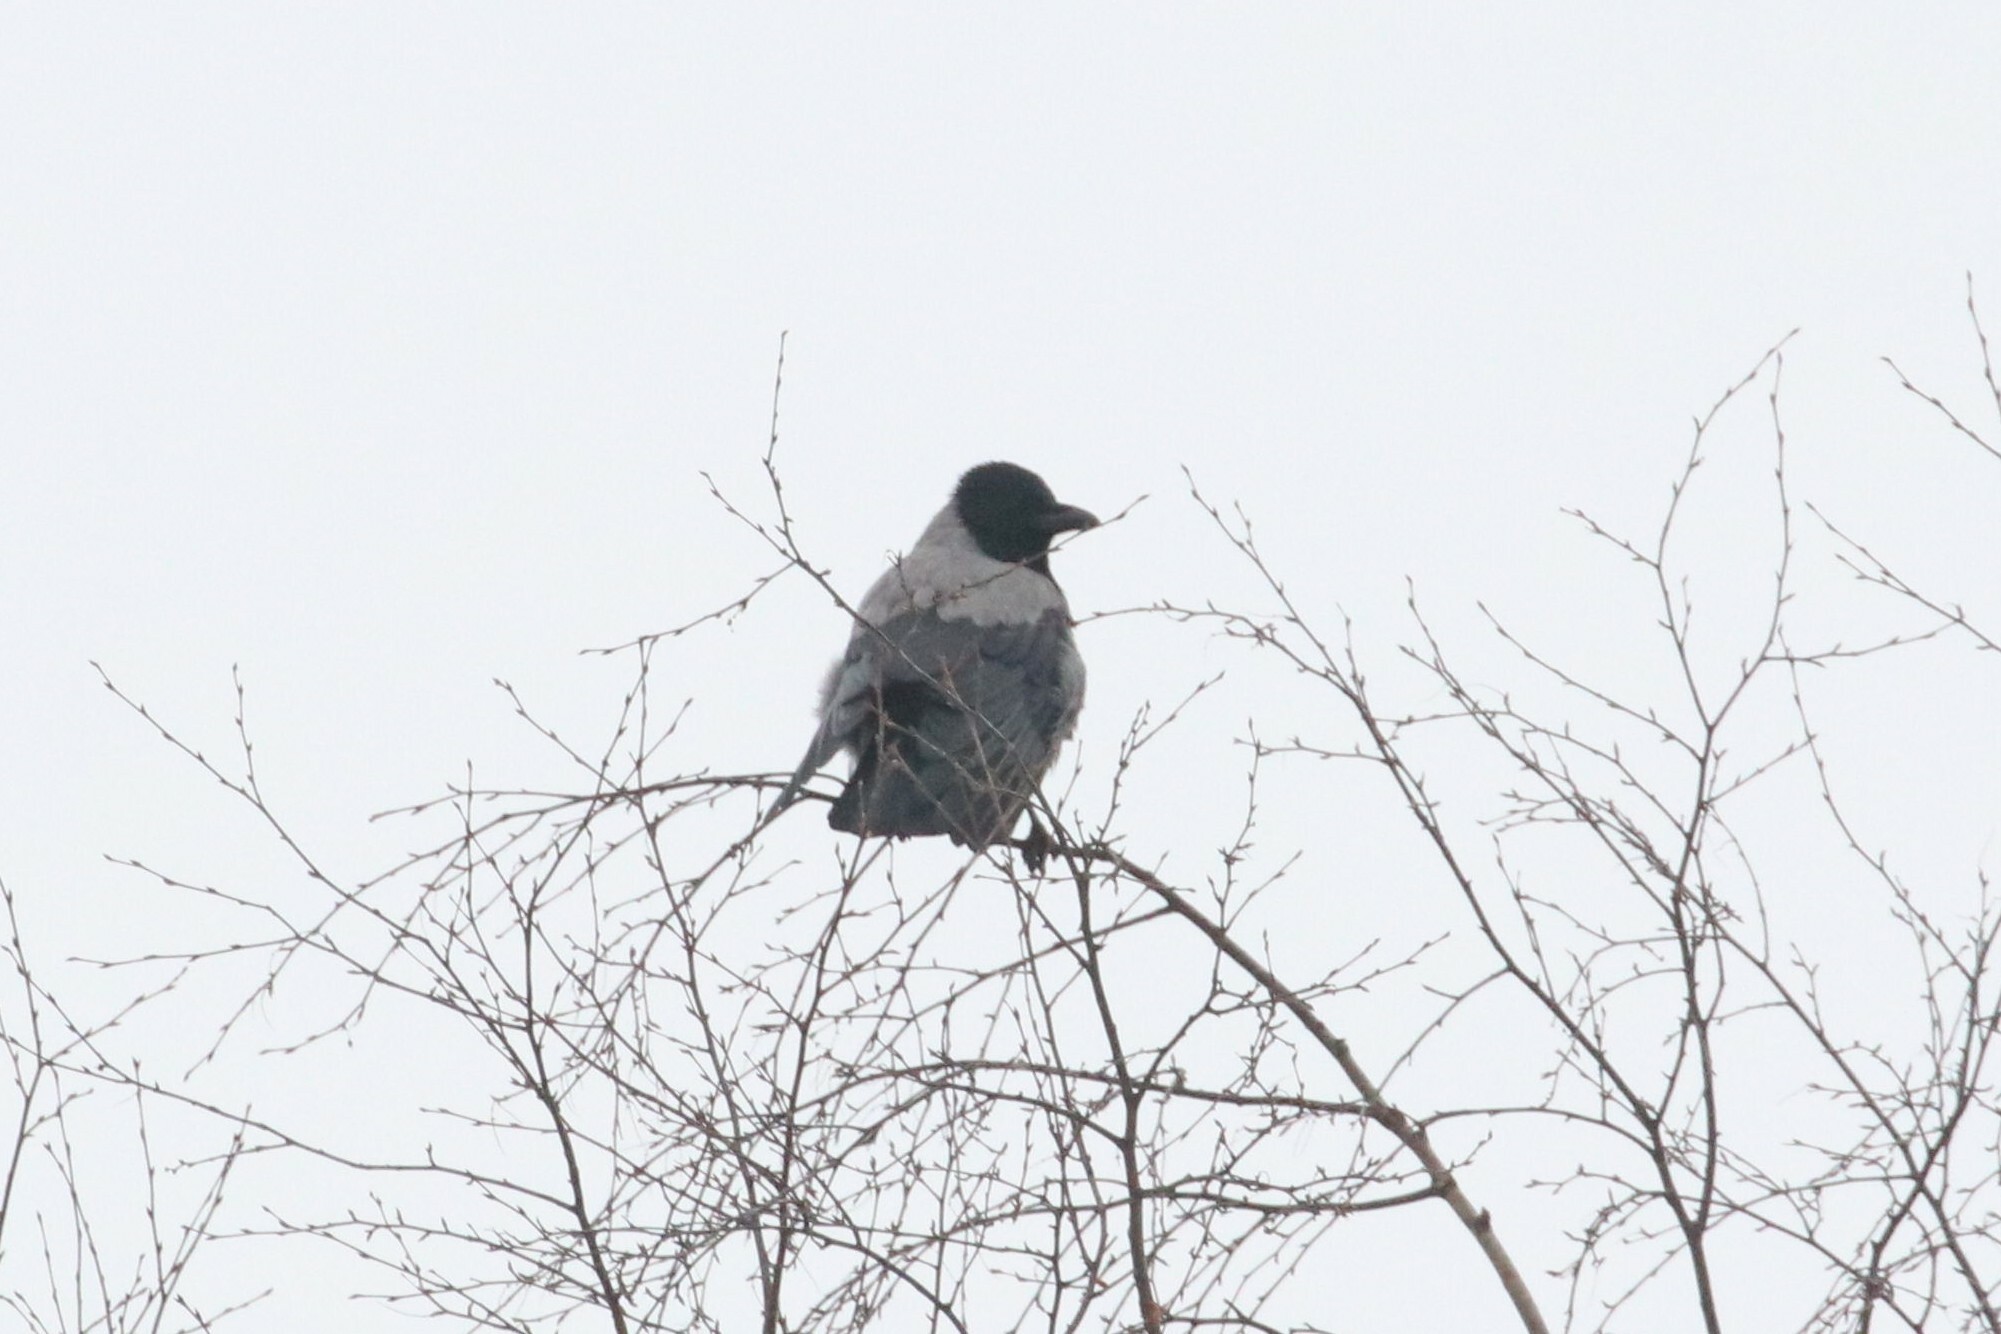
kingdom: Animalia
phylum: Chordata
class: Aves
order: Passeriformes
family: Corvidae
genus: Corvus
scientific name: Corvus cornix
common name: Hooded crow
